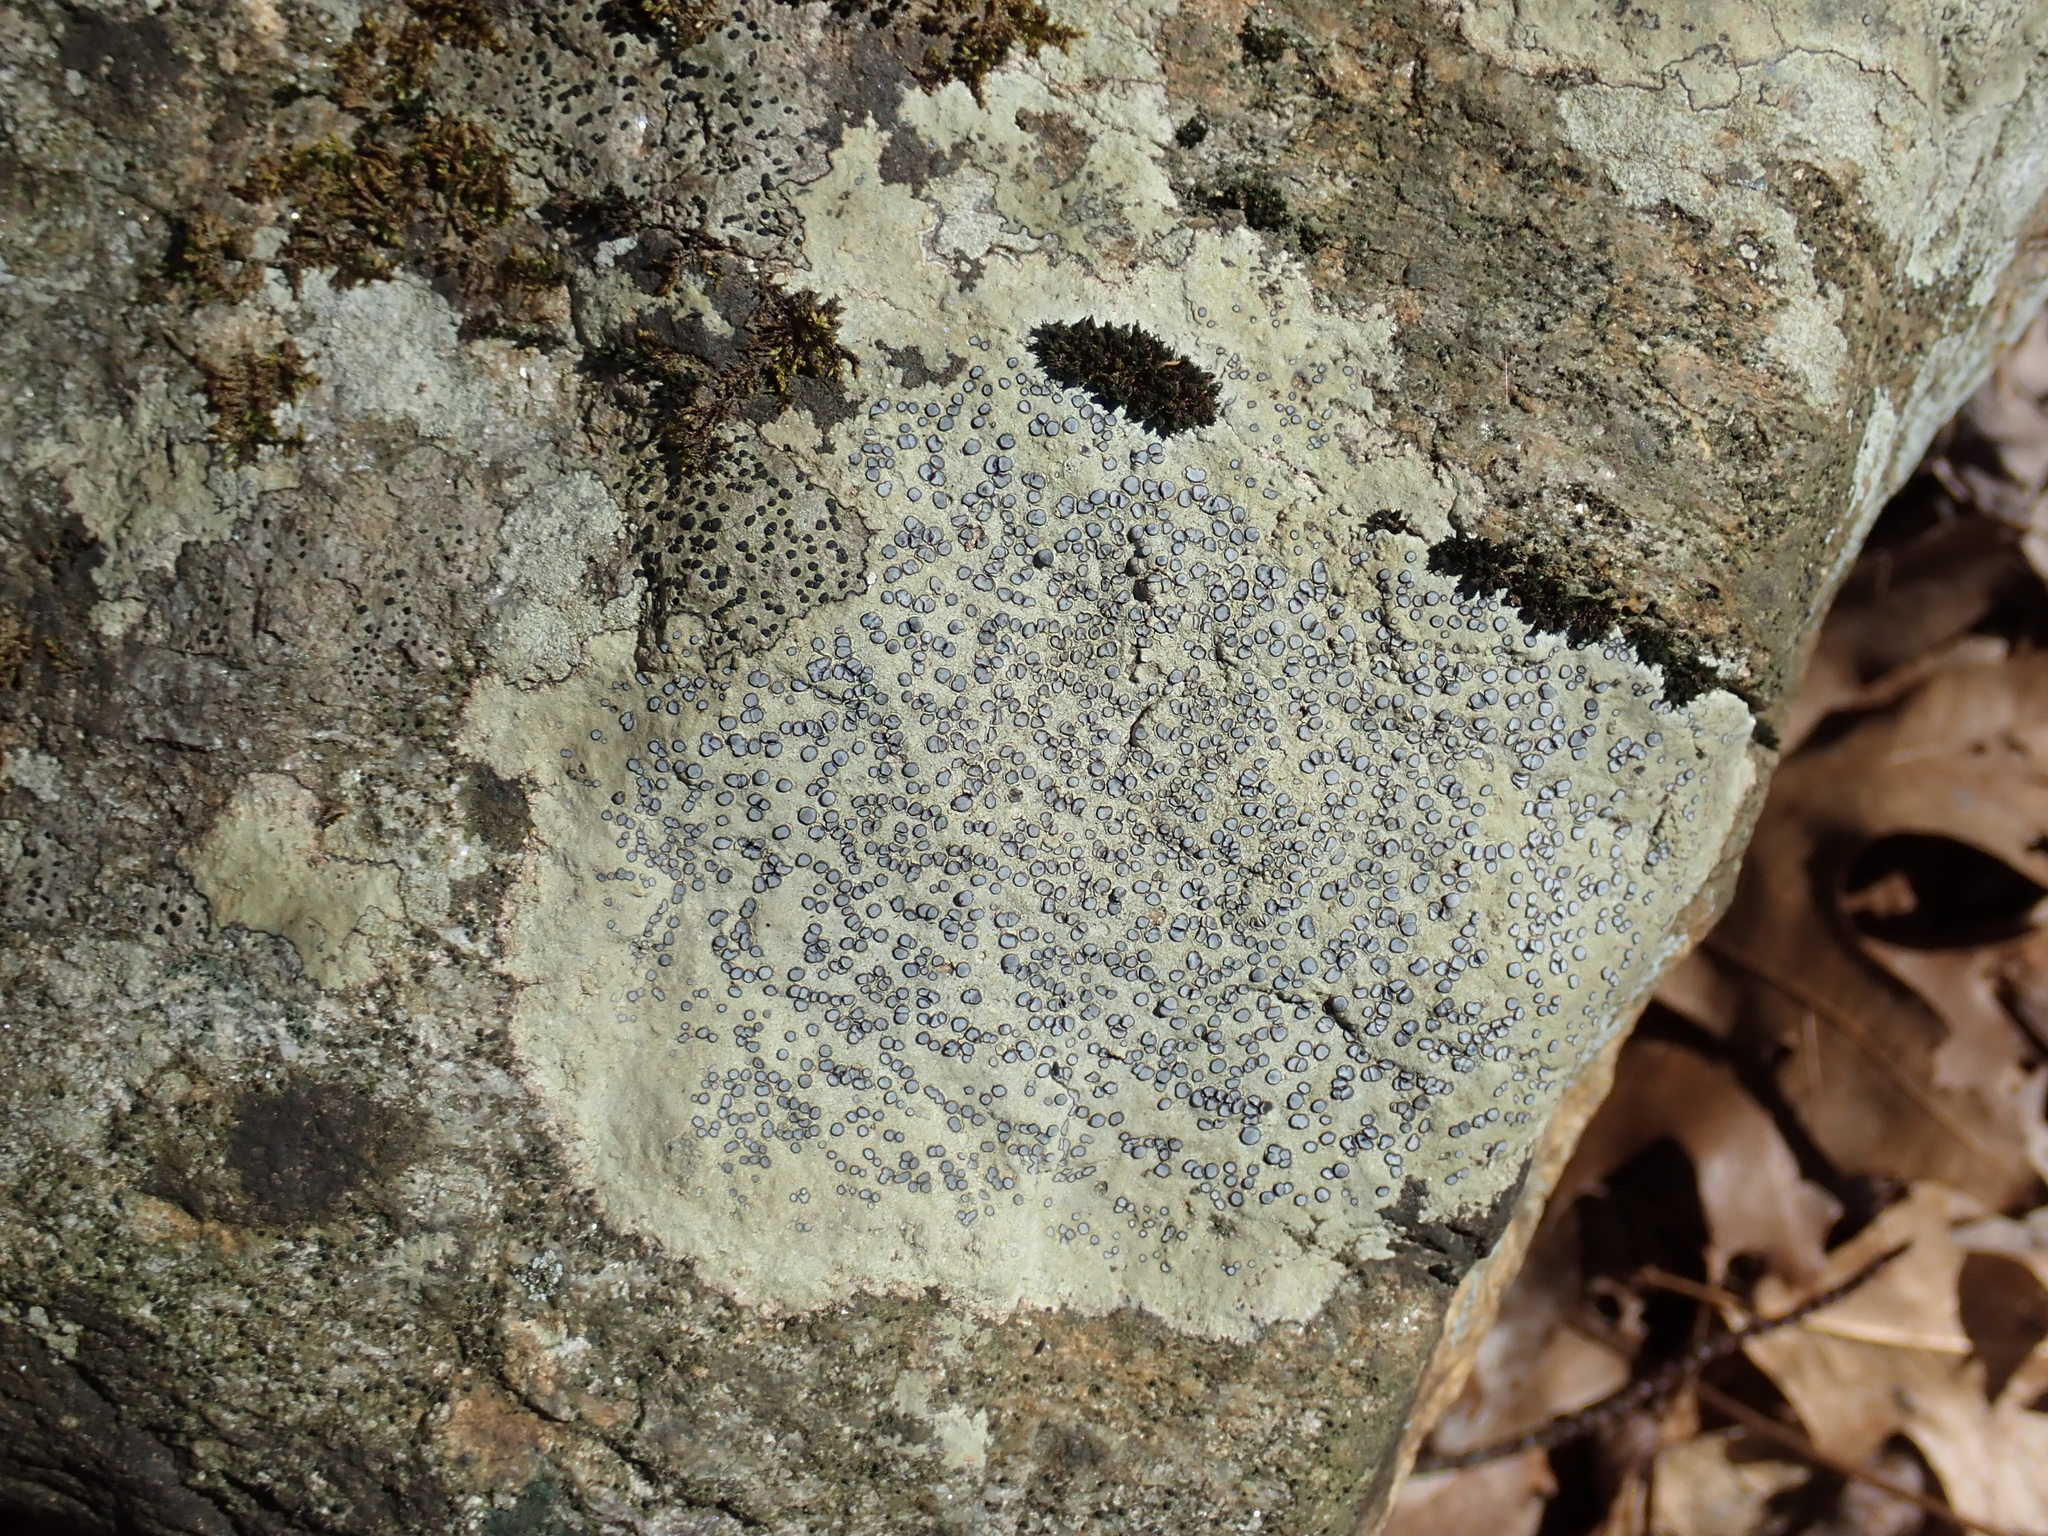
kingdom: Fungi
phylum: Ascomycota
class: Lecanoromycetes
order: Lecideales
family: Lecideaceae
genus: Porpidia
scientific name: Porpidia albocaerulescens
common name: Smokey-eyed boulder lichen
